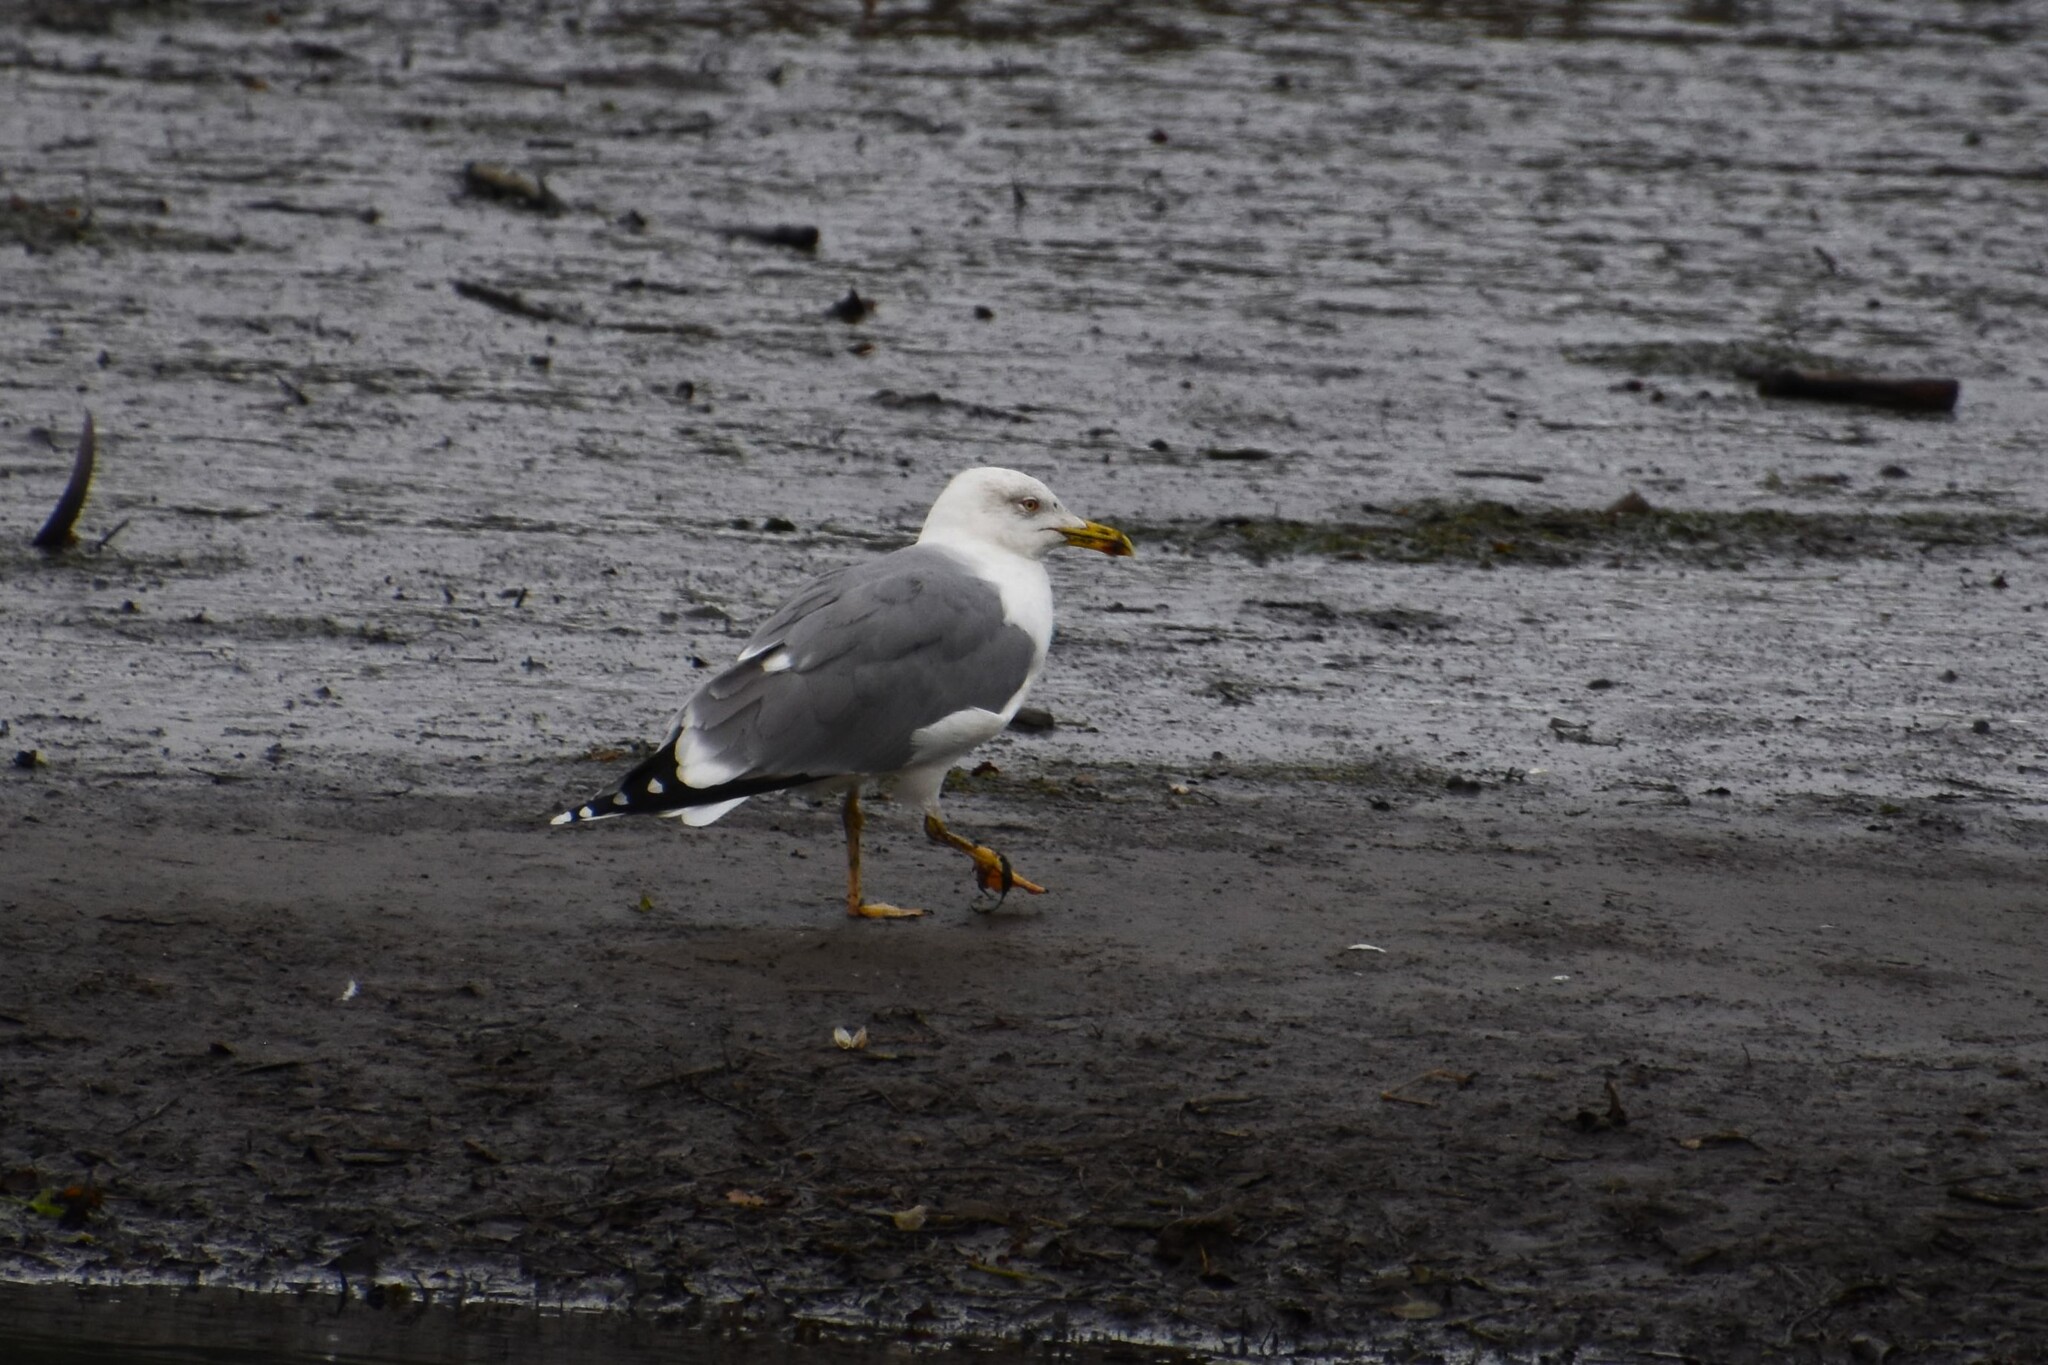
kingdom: Animalia
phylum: Chordata
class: Aves
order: Charadriiformes
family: Laridae
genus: Larus
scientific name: Larus michahellis
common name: Yellow-legged gull
